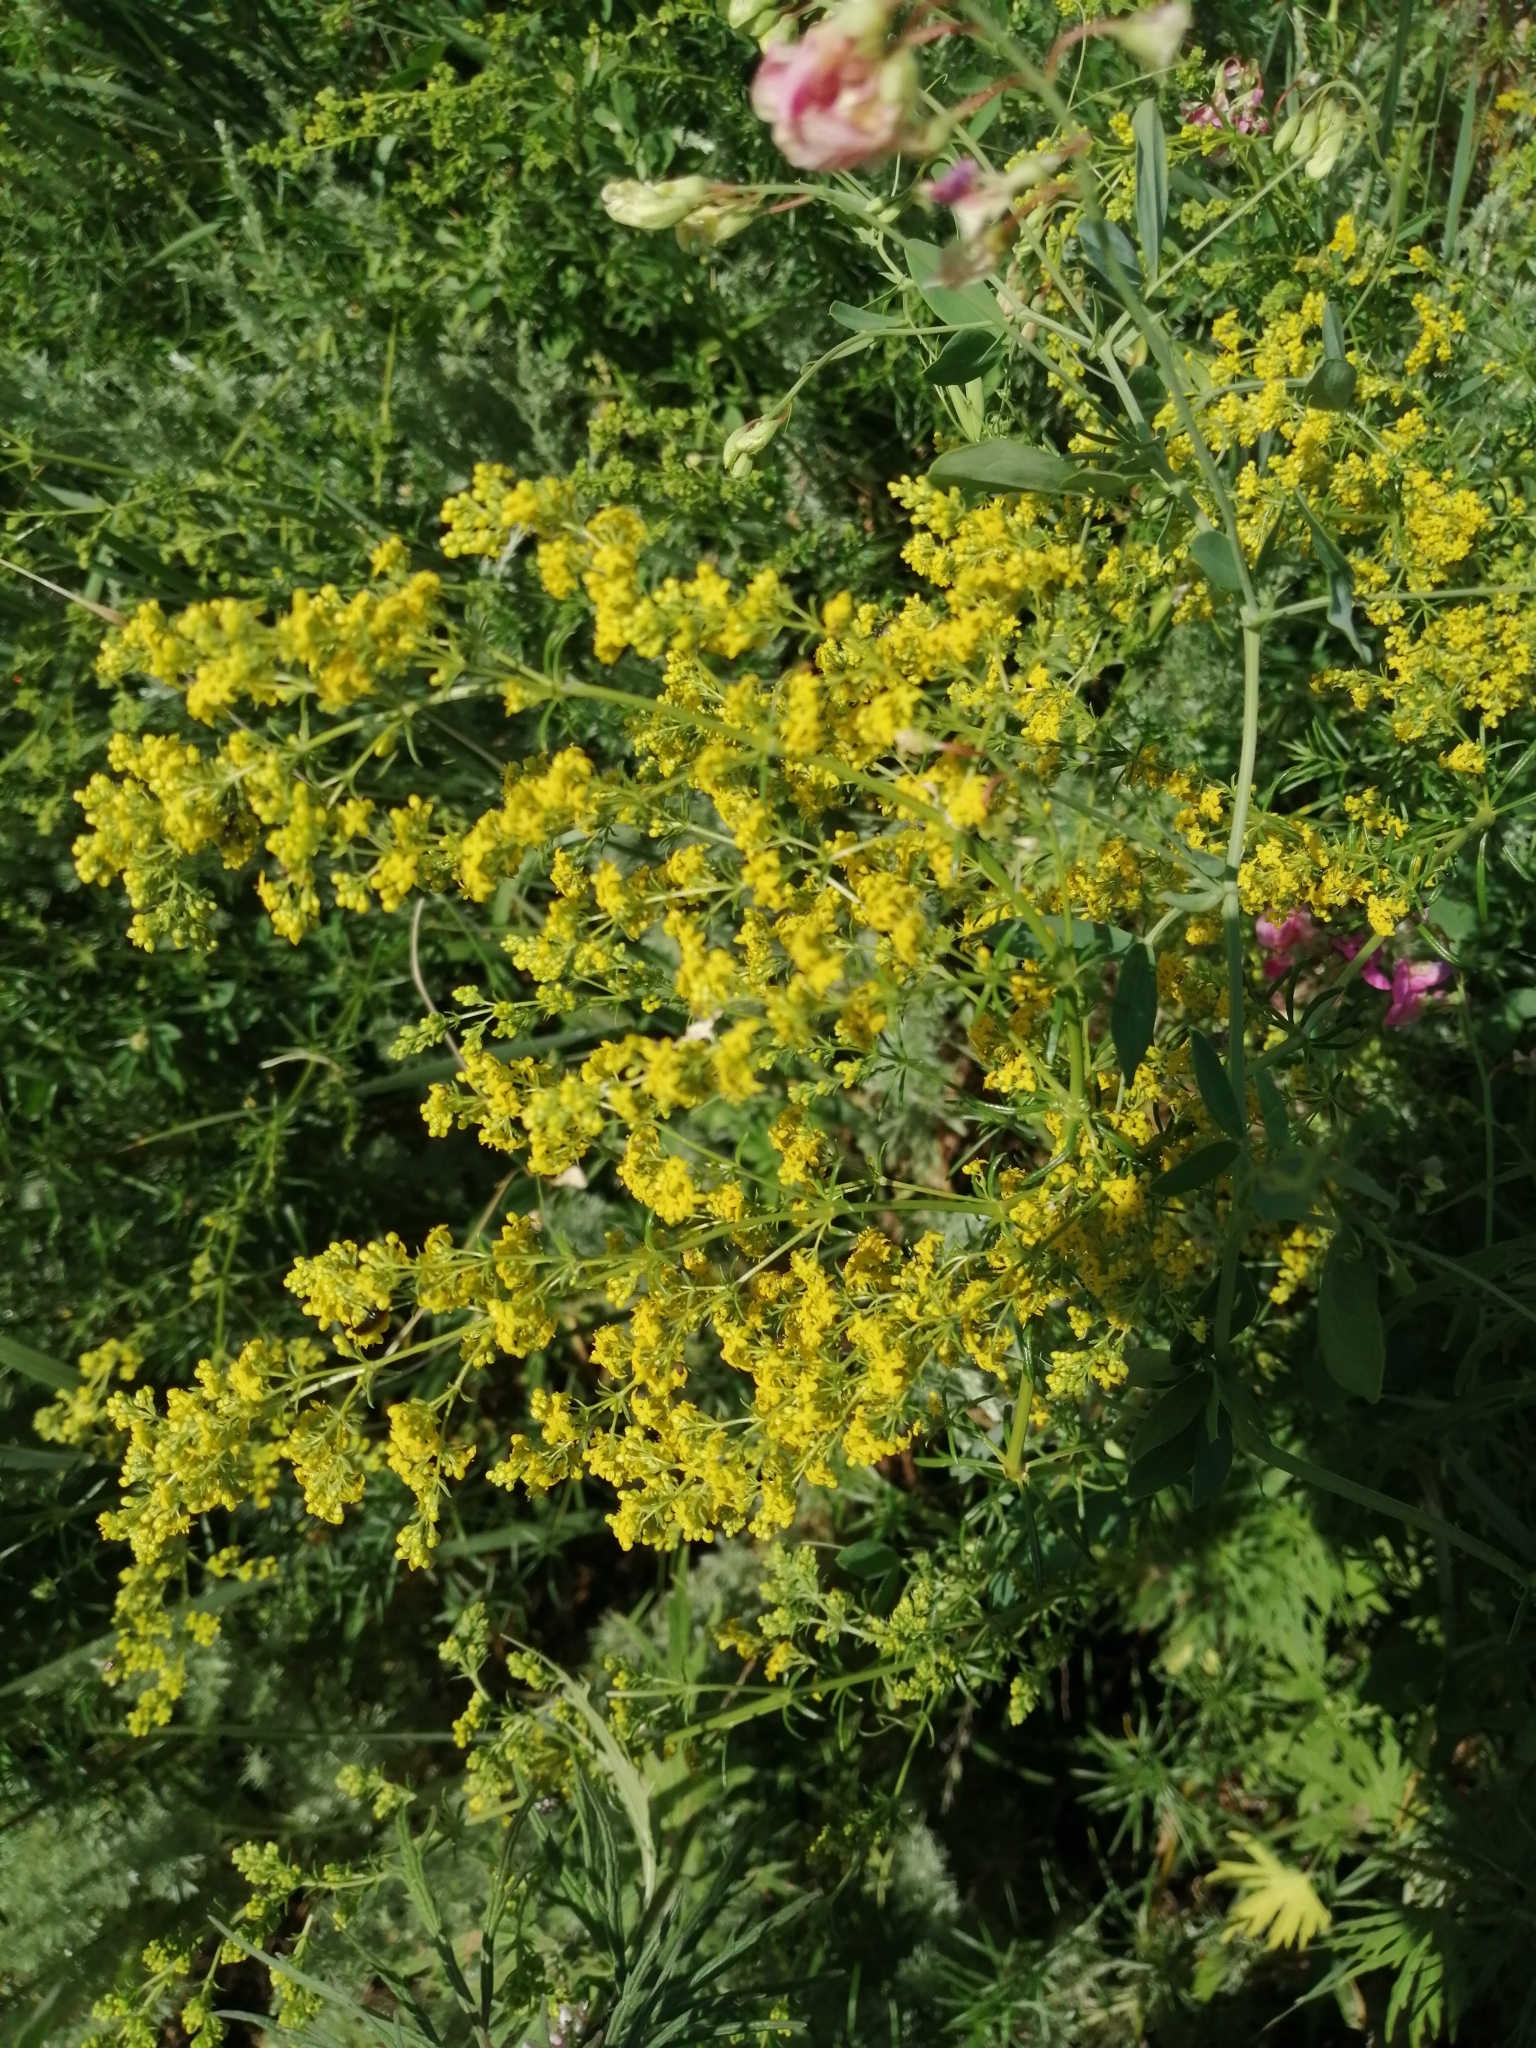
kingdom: Plantae
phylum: Tracheophyta
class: Magnoliopsida
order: Gentianales
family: Rubiaceae
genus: Galium
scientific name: Galium verum
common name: Lady's bedstraw
